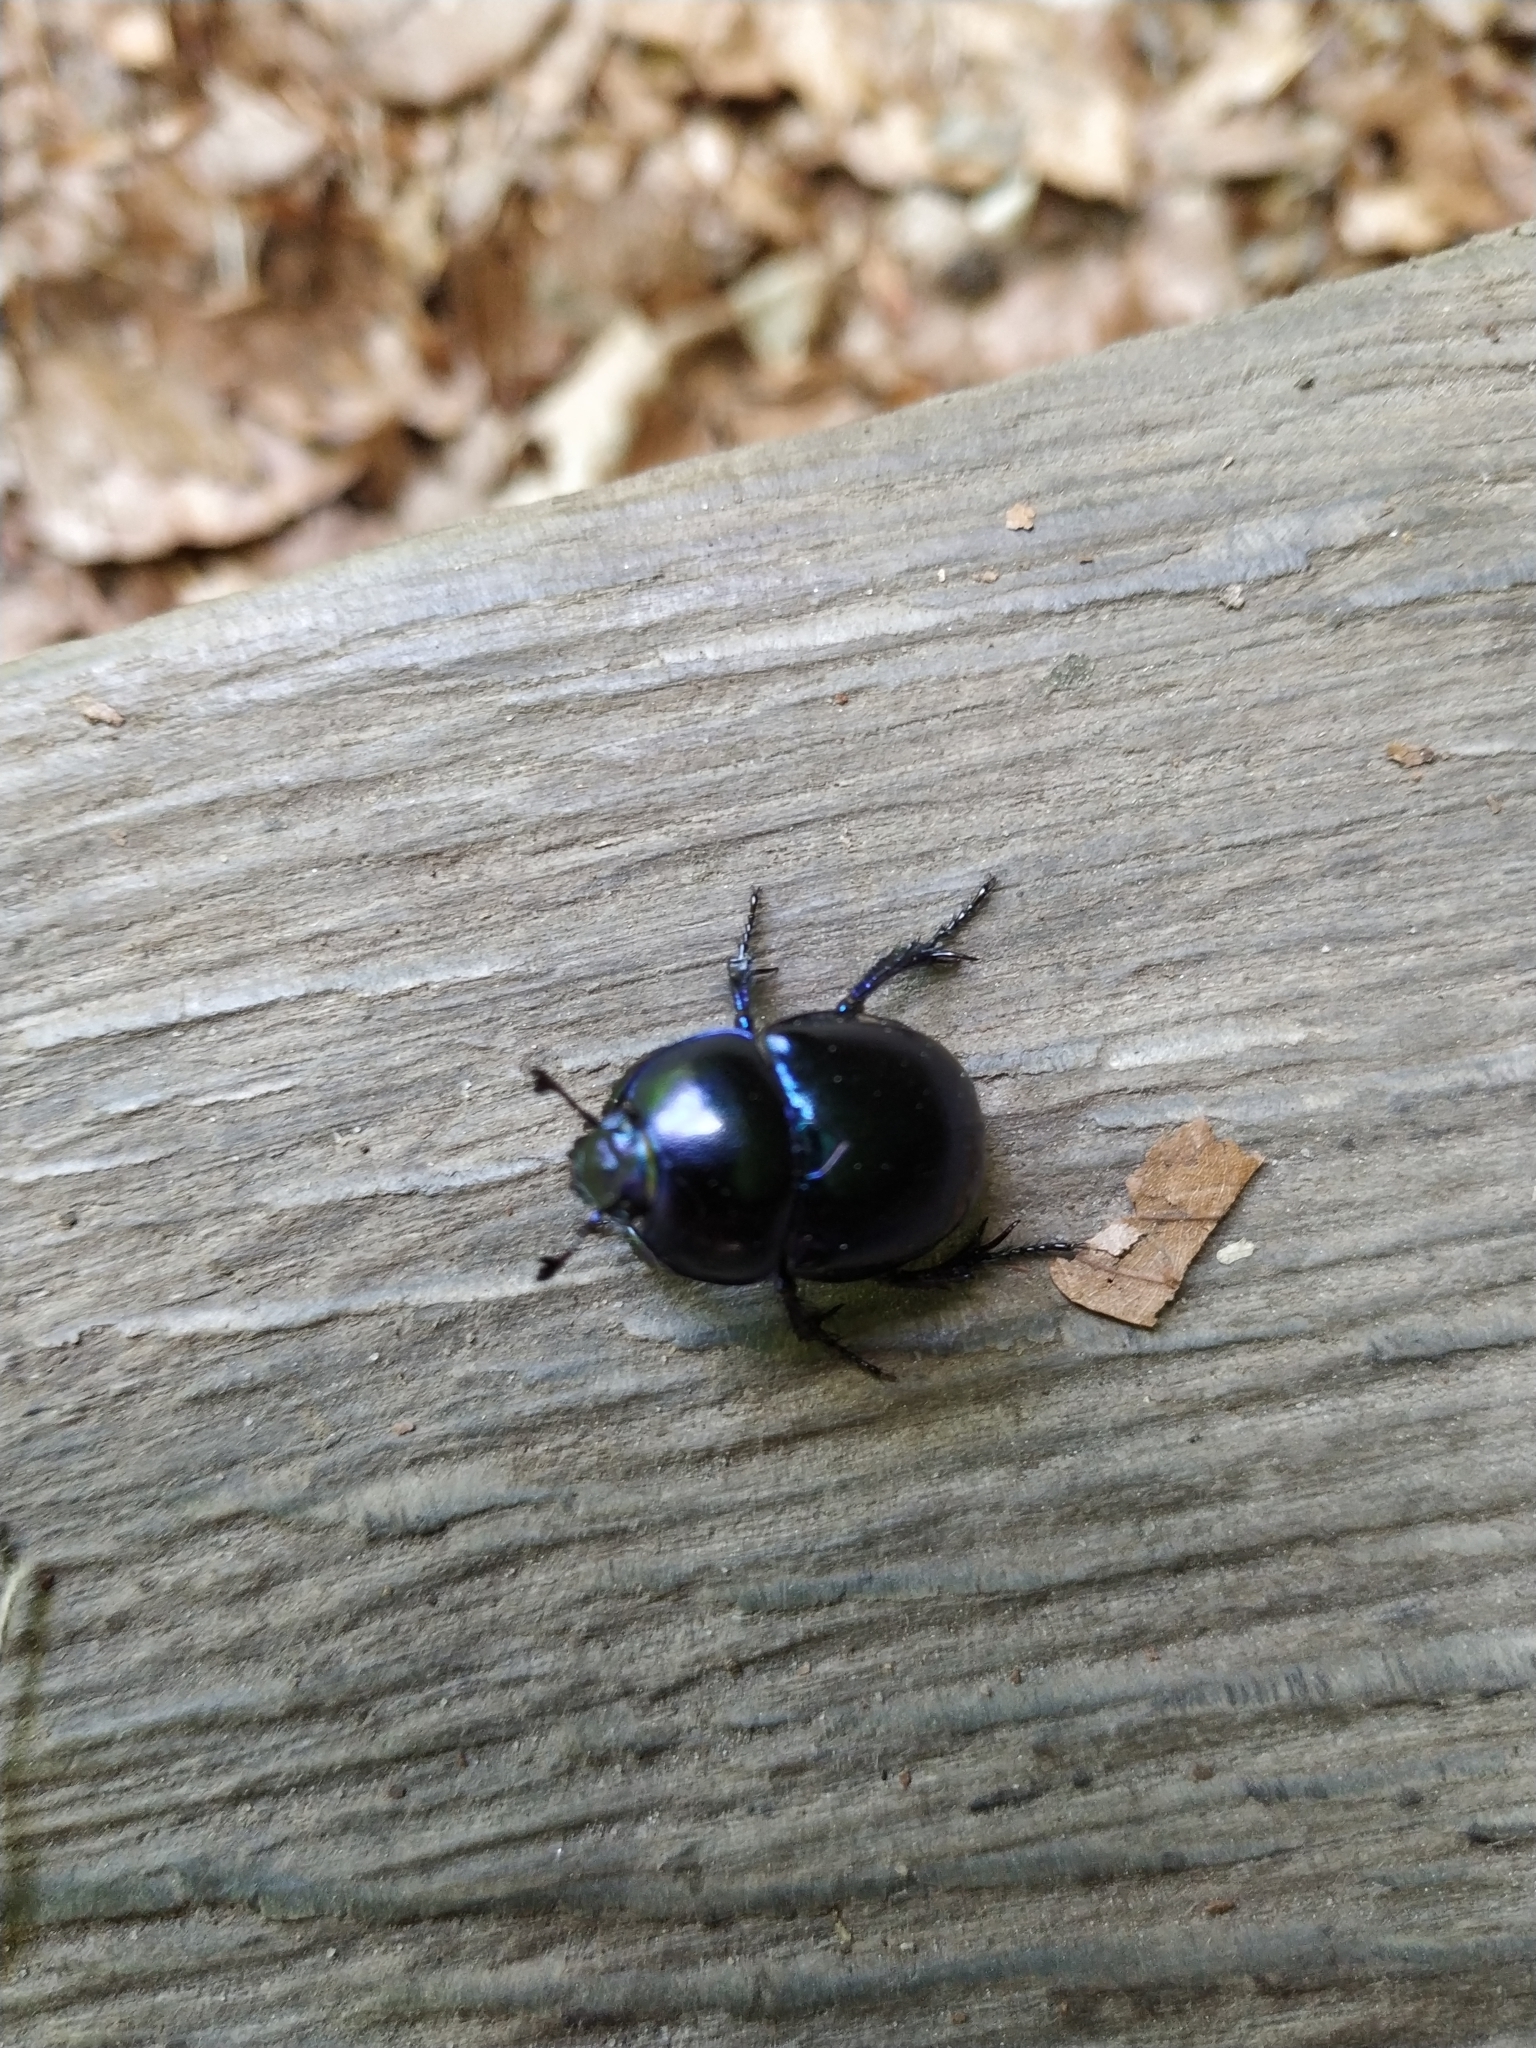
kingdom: Animalia
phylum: Arthropoda
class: Insecta
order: Coleoptera
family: Geotrupidae
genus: Trypocopris
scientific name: Trypocopris vernalis
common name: Spring dumbledor
